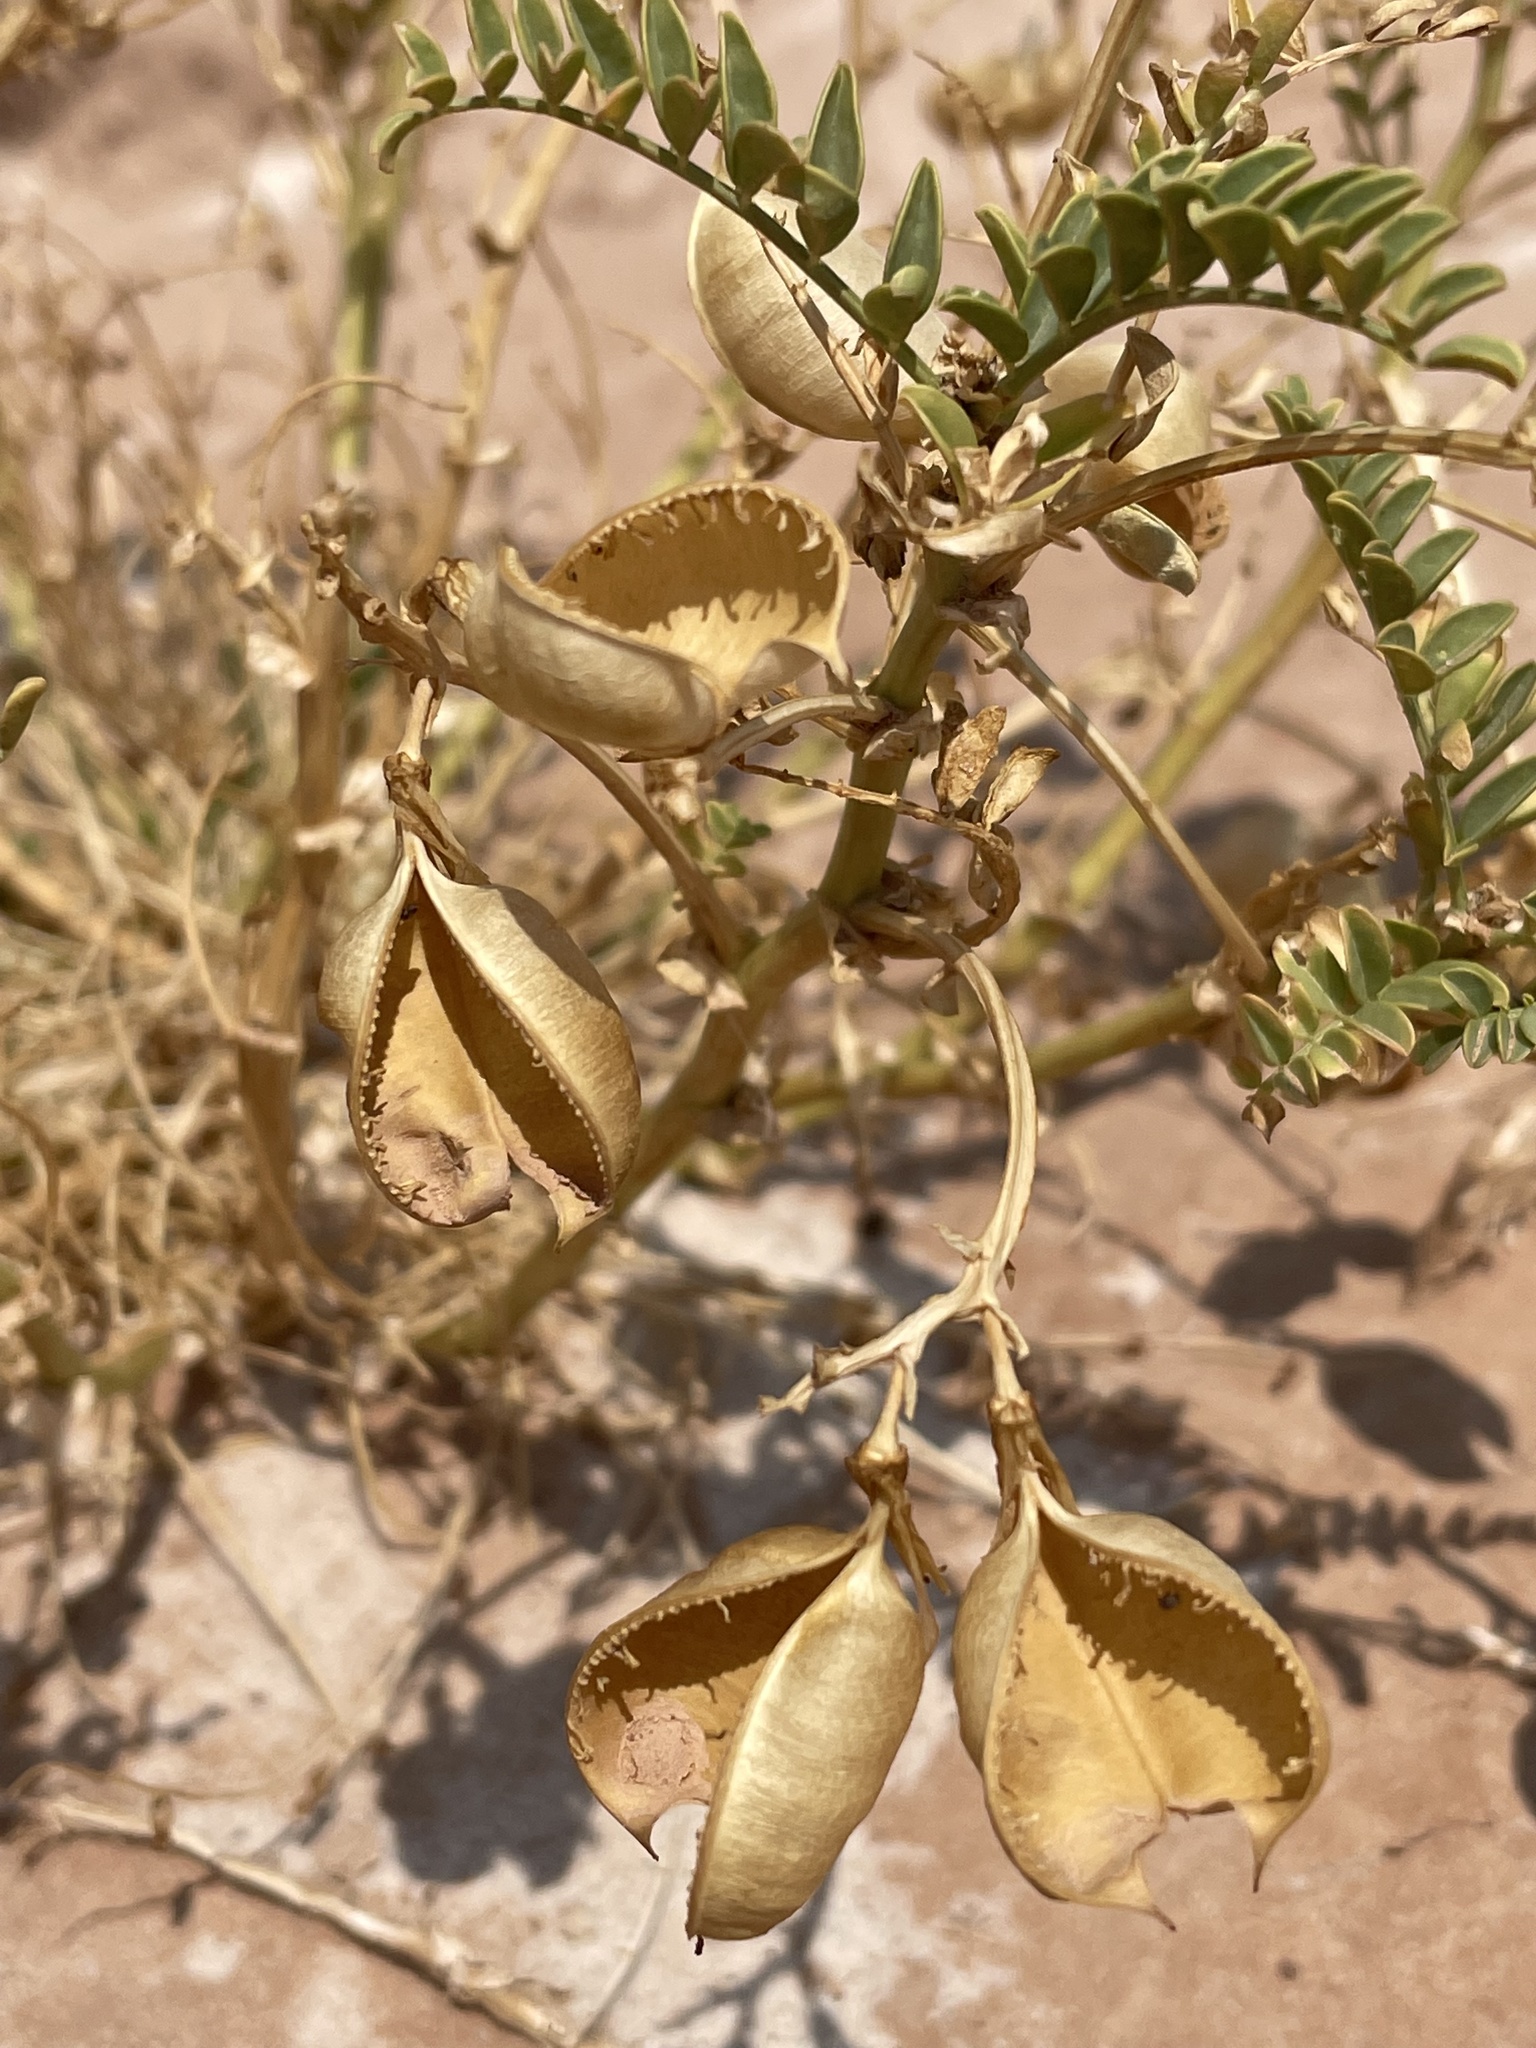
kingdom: Plantae
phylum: Tracheophyta
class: Magnoliopsida
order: Fabales
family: Fabaceae
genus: Astragalus
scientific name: Astragalus preussii
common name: Preuss's milk-vetch
